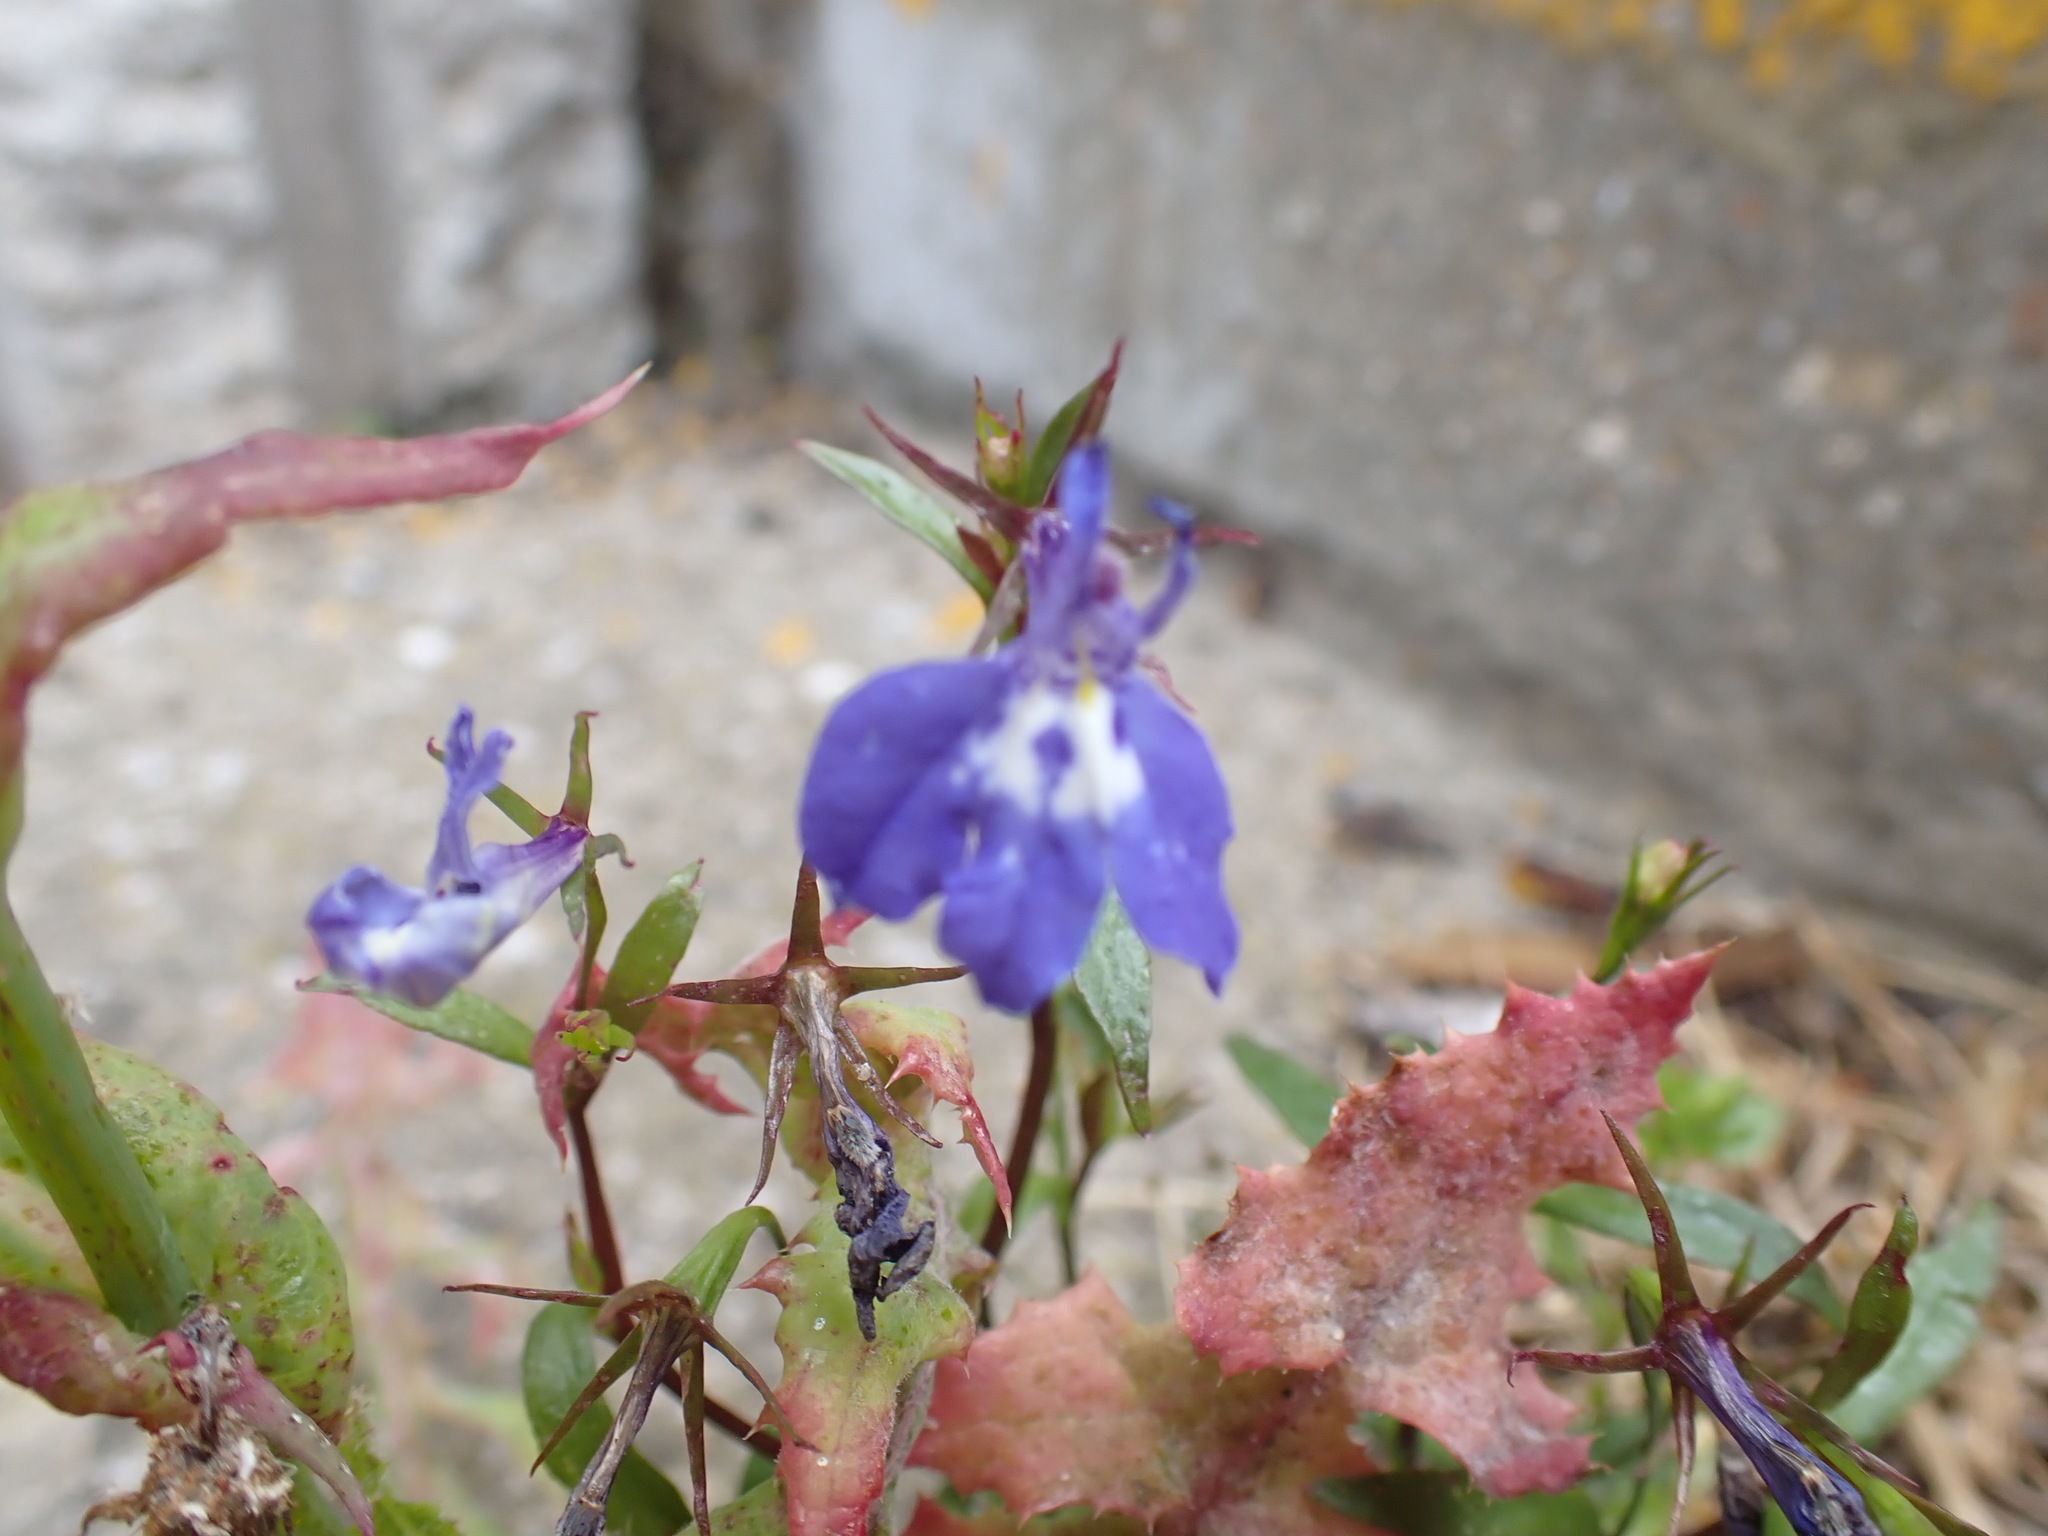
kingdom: Plantae
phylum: Tracheophyta
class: Magnoliopsida
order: Asterales
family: Campanulaceae
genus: Lobelia
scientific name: Lobelia erinus
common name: Edging lobelia
